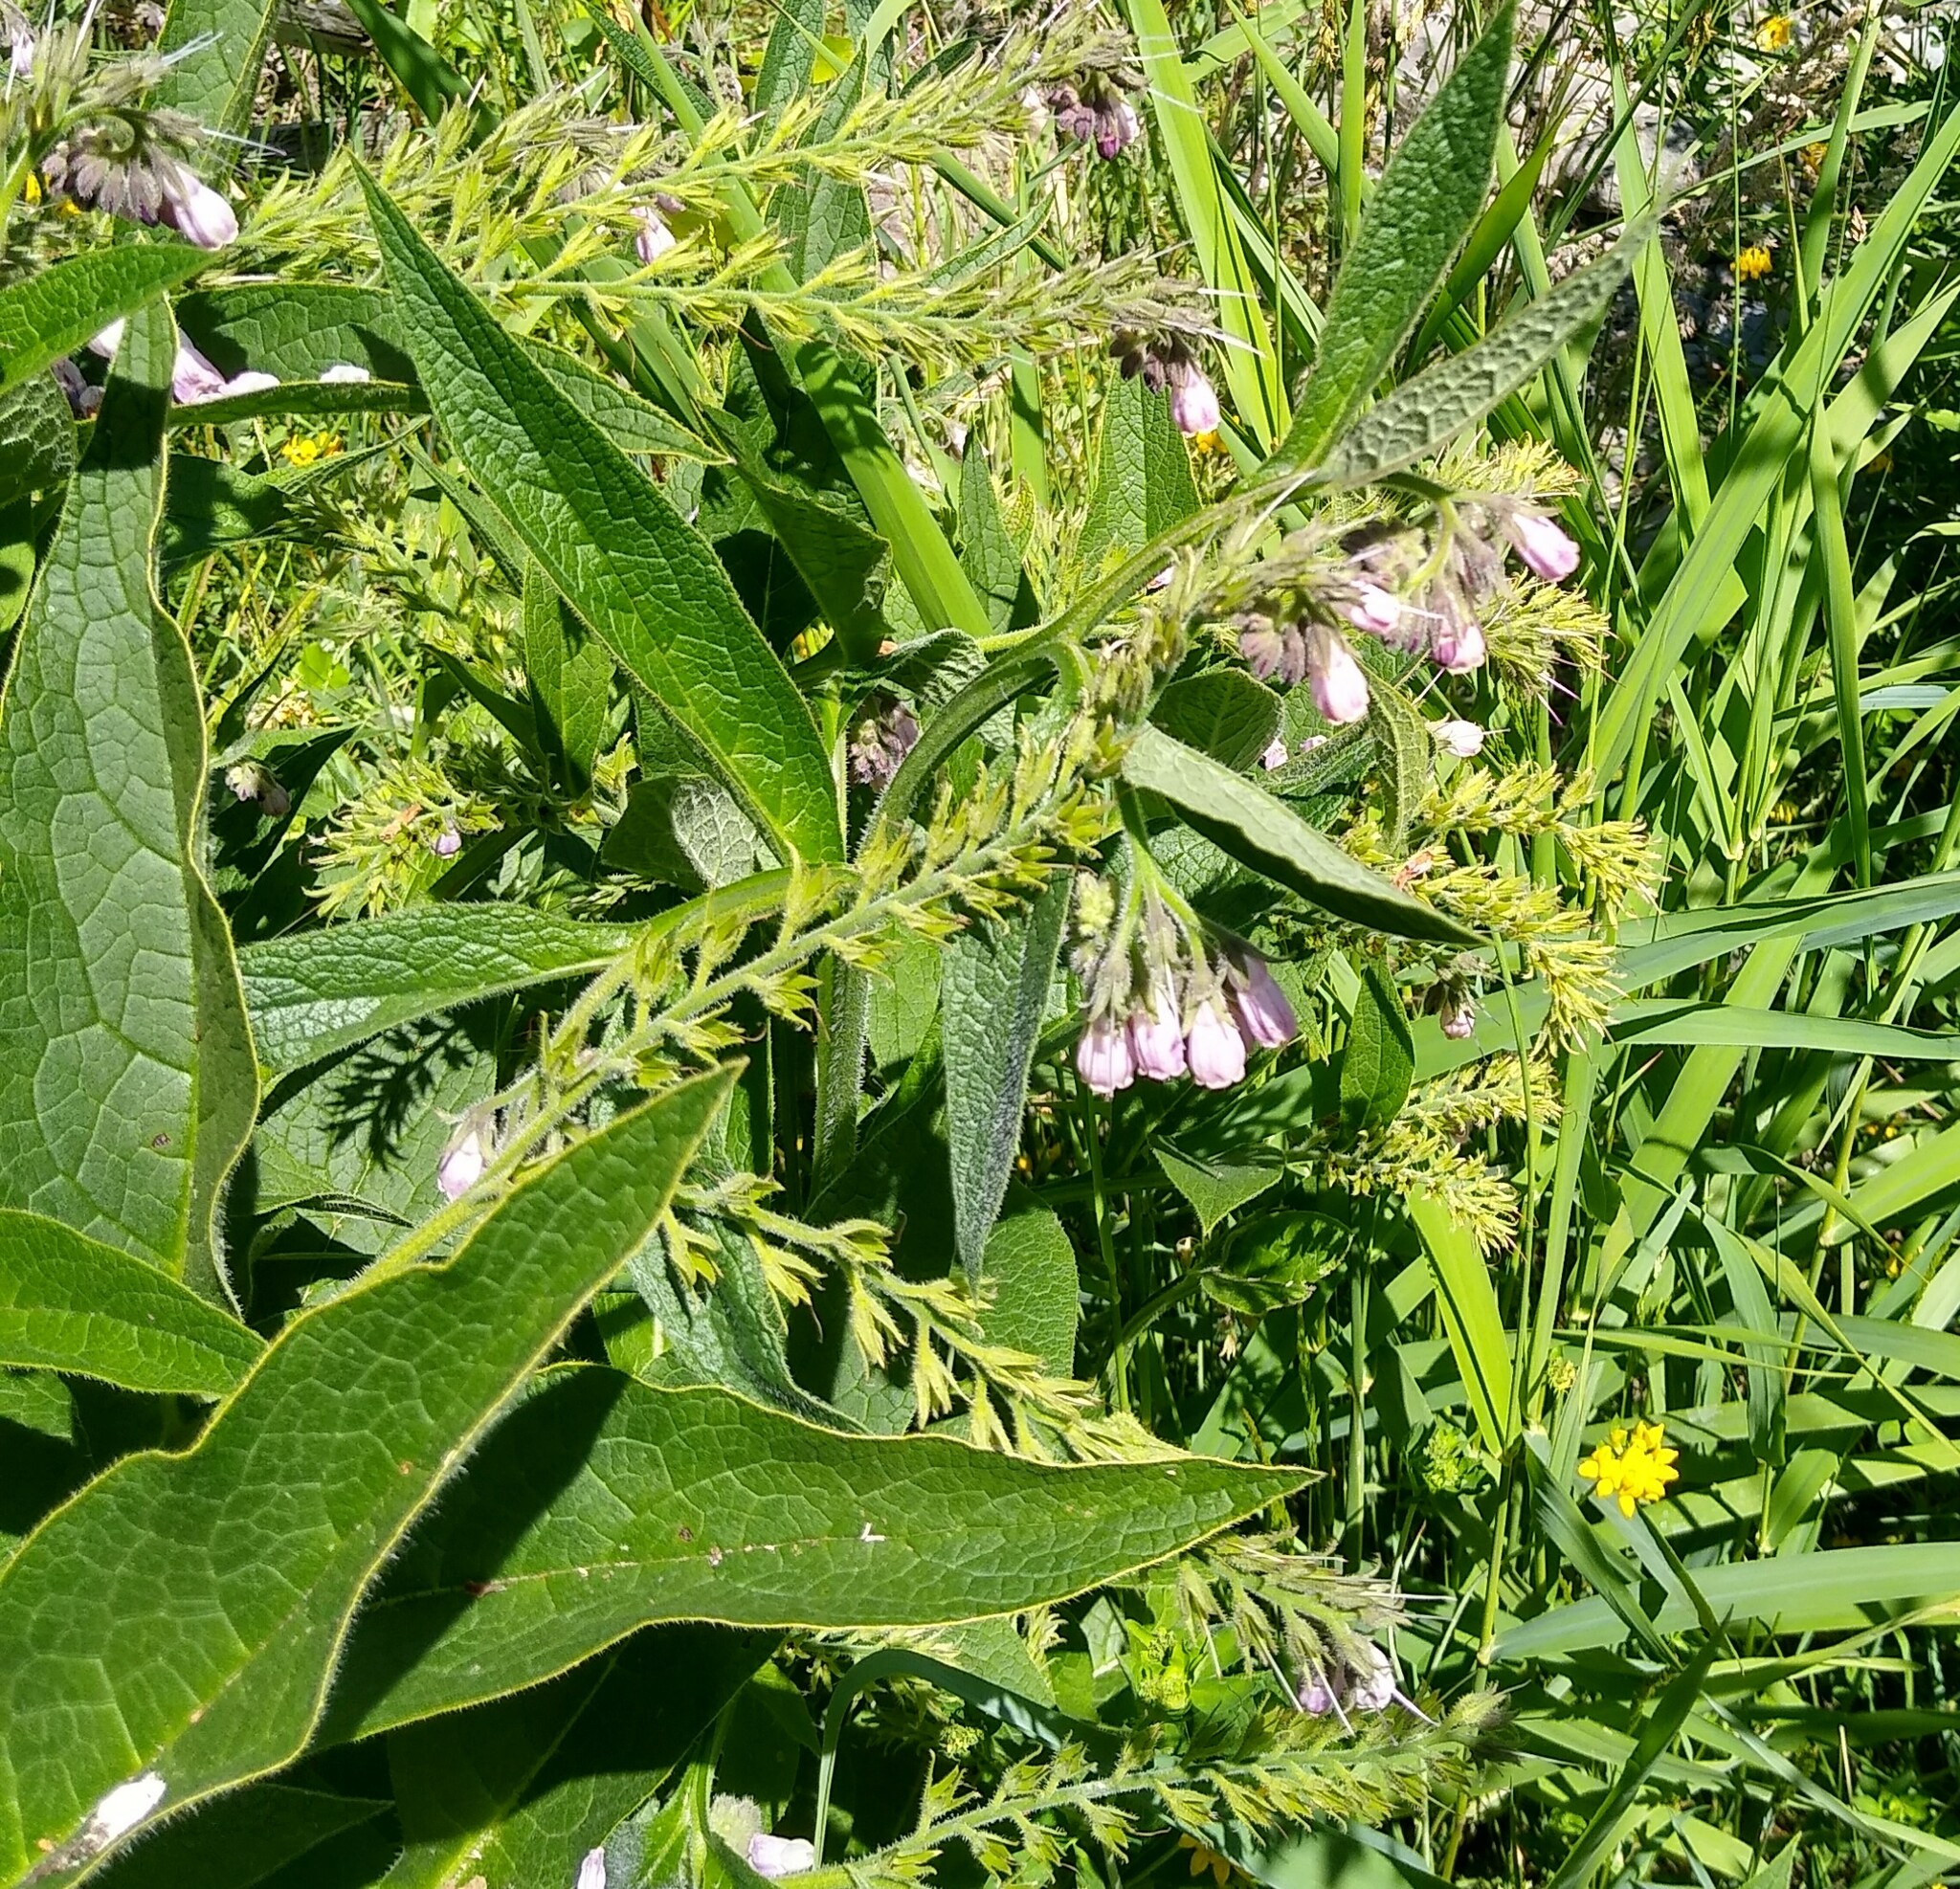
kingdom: Plantae
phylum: Tracheophyta
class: Magnoliopsida
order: Boraginales
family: Boraginaceae
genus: Symphytum
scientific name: Symphytum officinale
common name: Common comfrey
